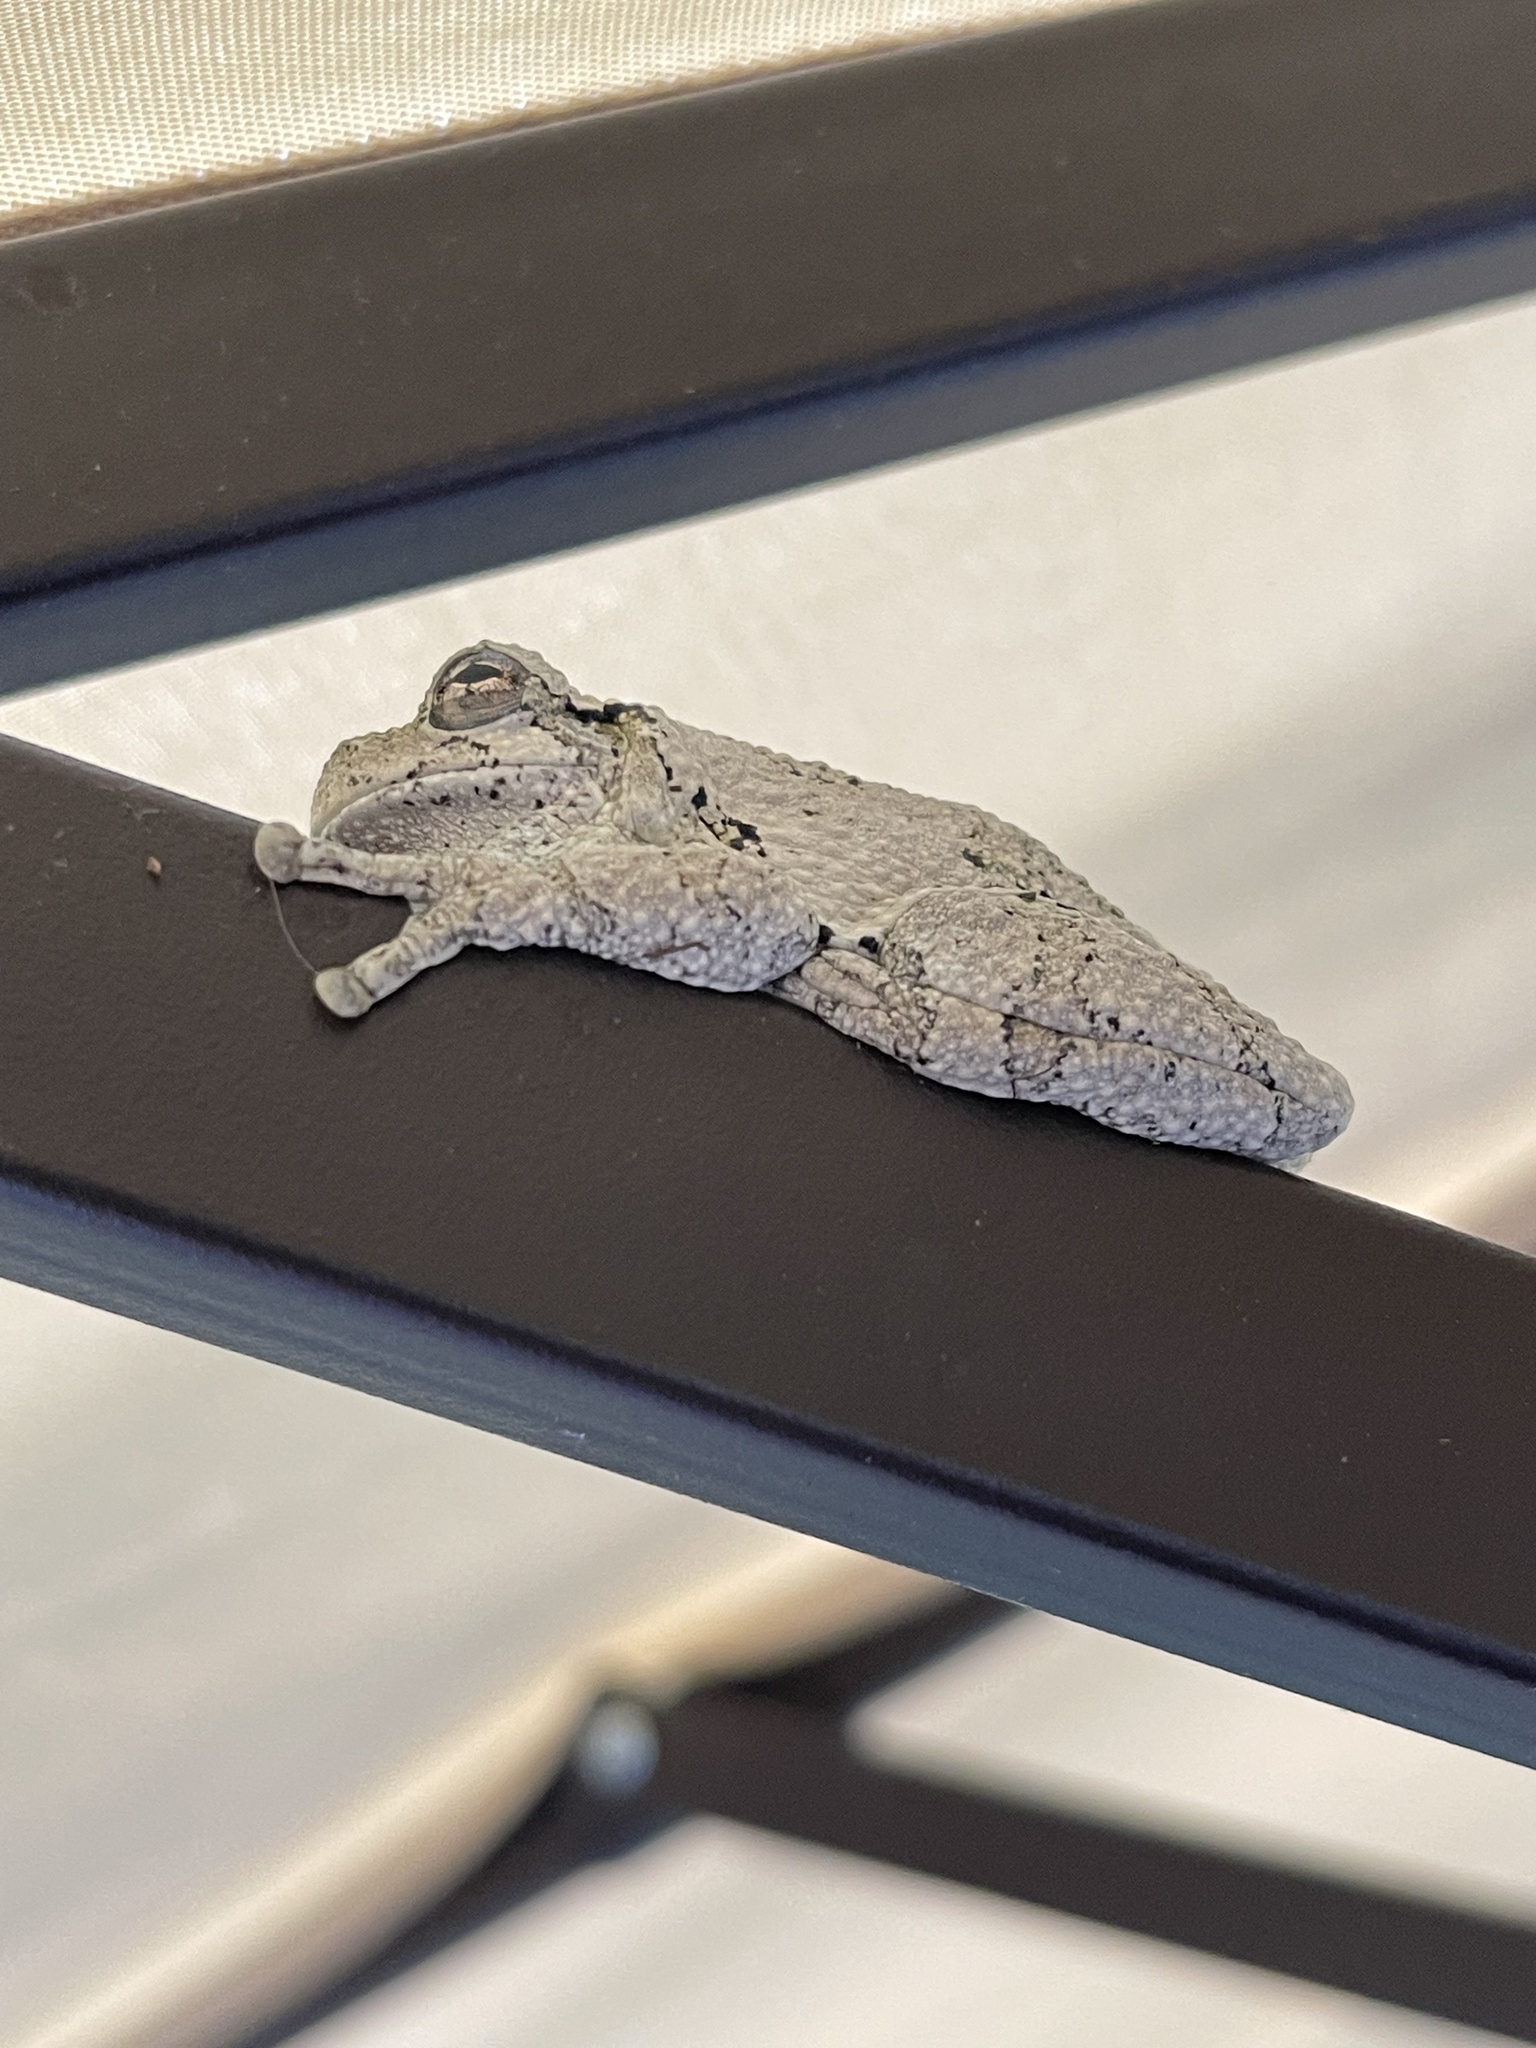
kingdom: Animalia
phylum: Chordata
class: Amphibia
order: Anura
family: Hylidae
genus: Hyla
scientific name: Hyla
